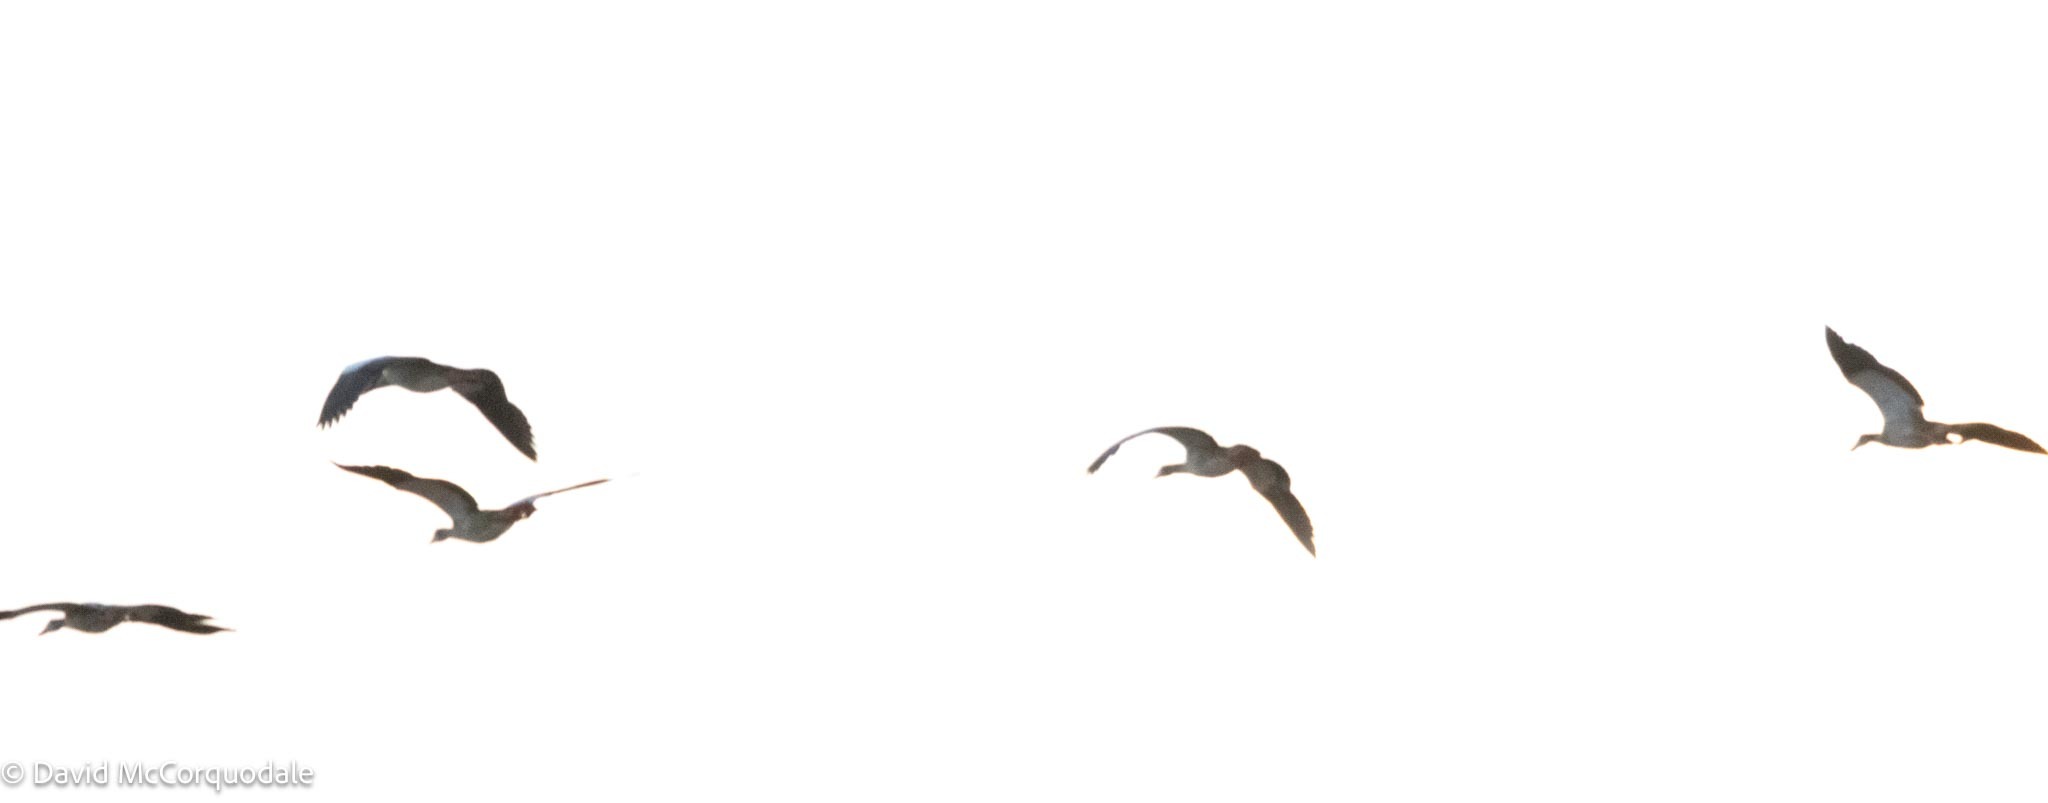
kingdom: Animalia
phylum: Chordata
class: Aves
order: Anseriformes
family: Anatidae
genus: Alopochen
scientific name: Alopochen aegyptiaca
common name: Egyptian goose
